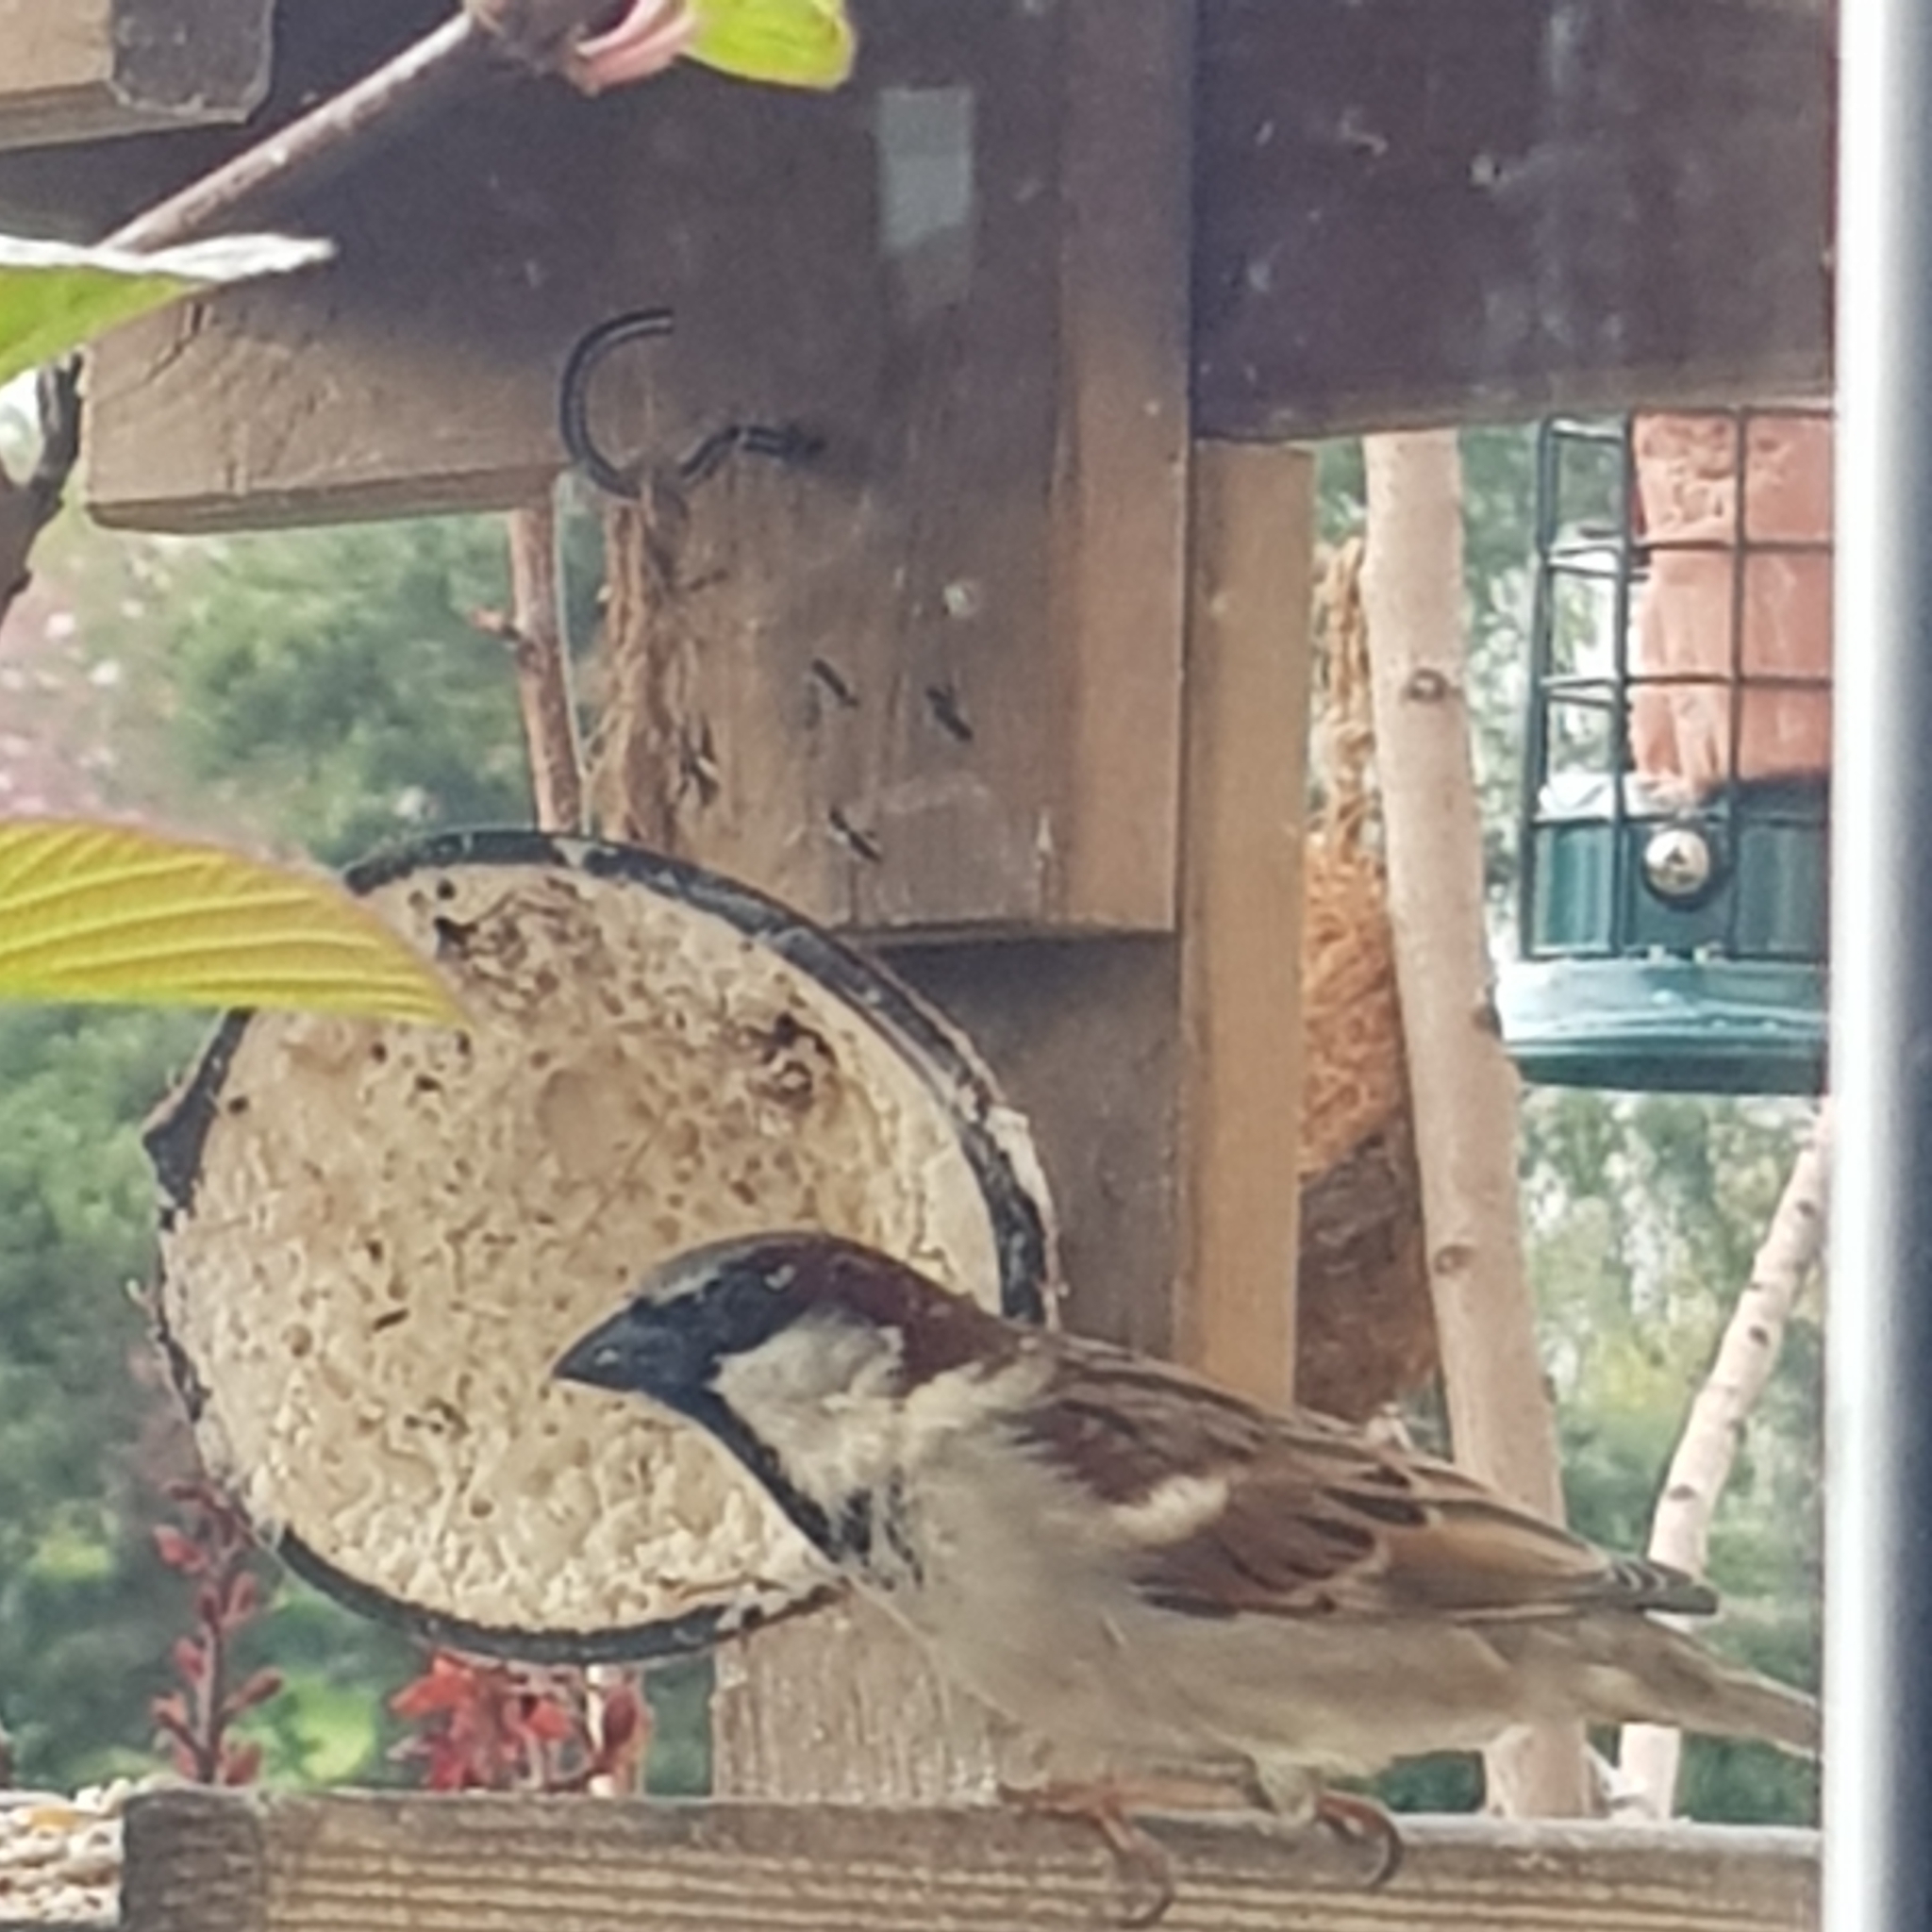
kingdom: Animalia
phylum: Chordata
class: Aves
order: Passeriformes
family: Passeridae
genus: Passer
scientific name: Passer domesticus
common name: House sparrow
